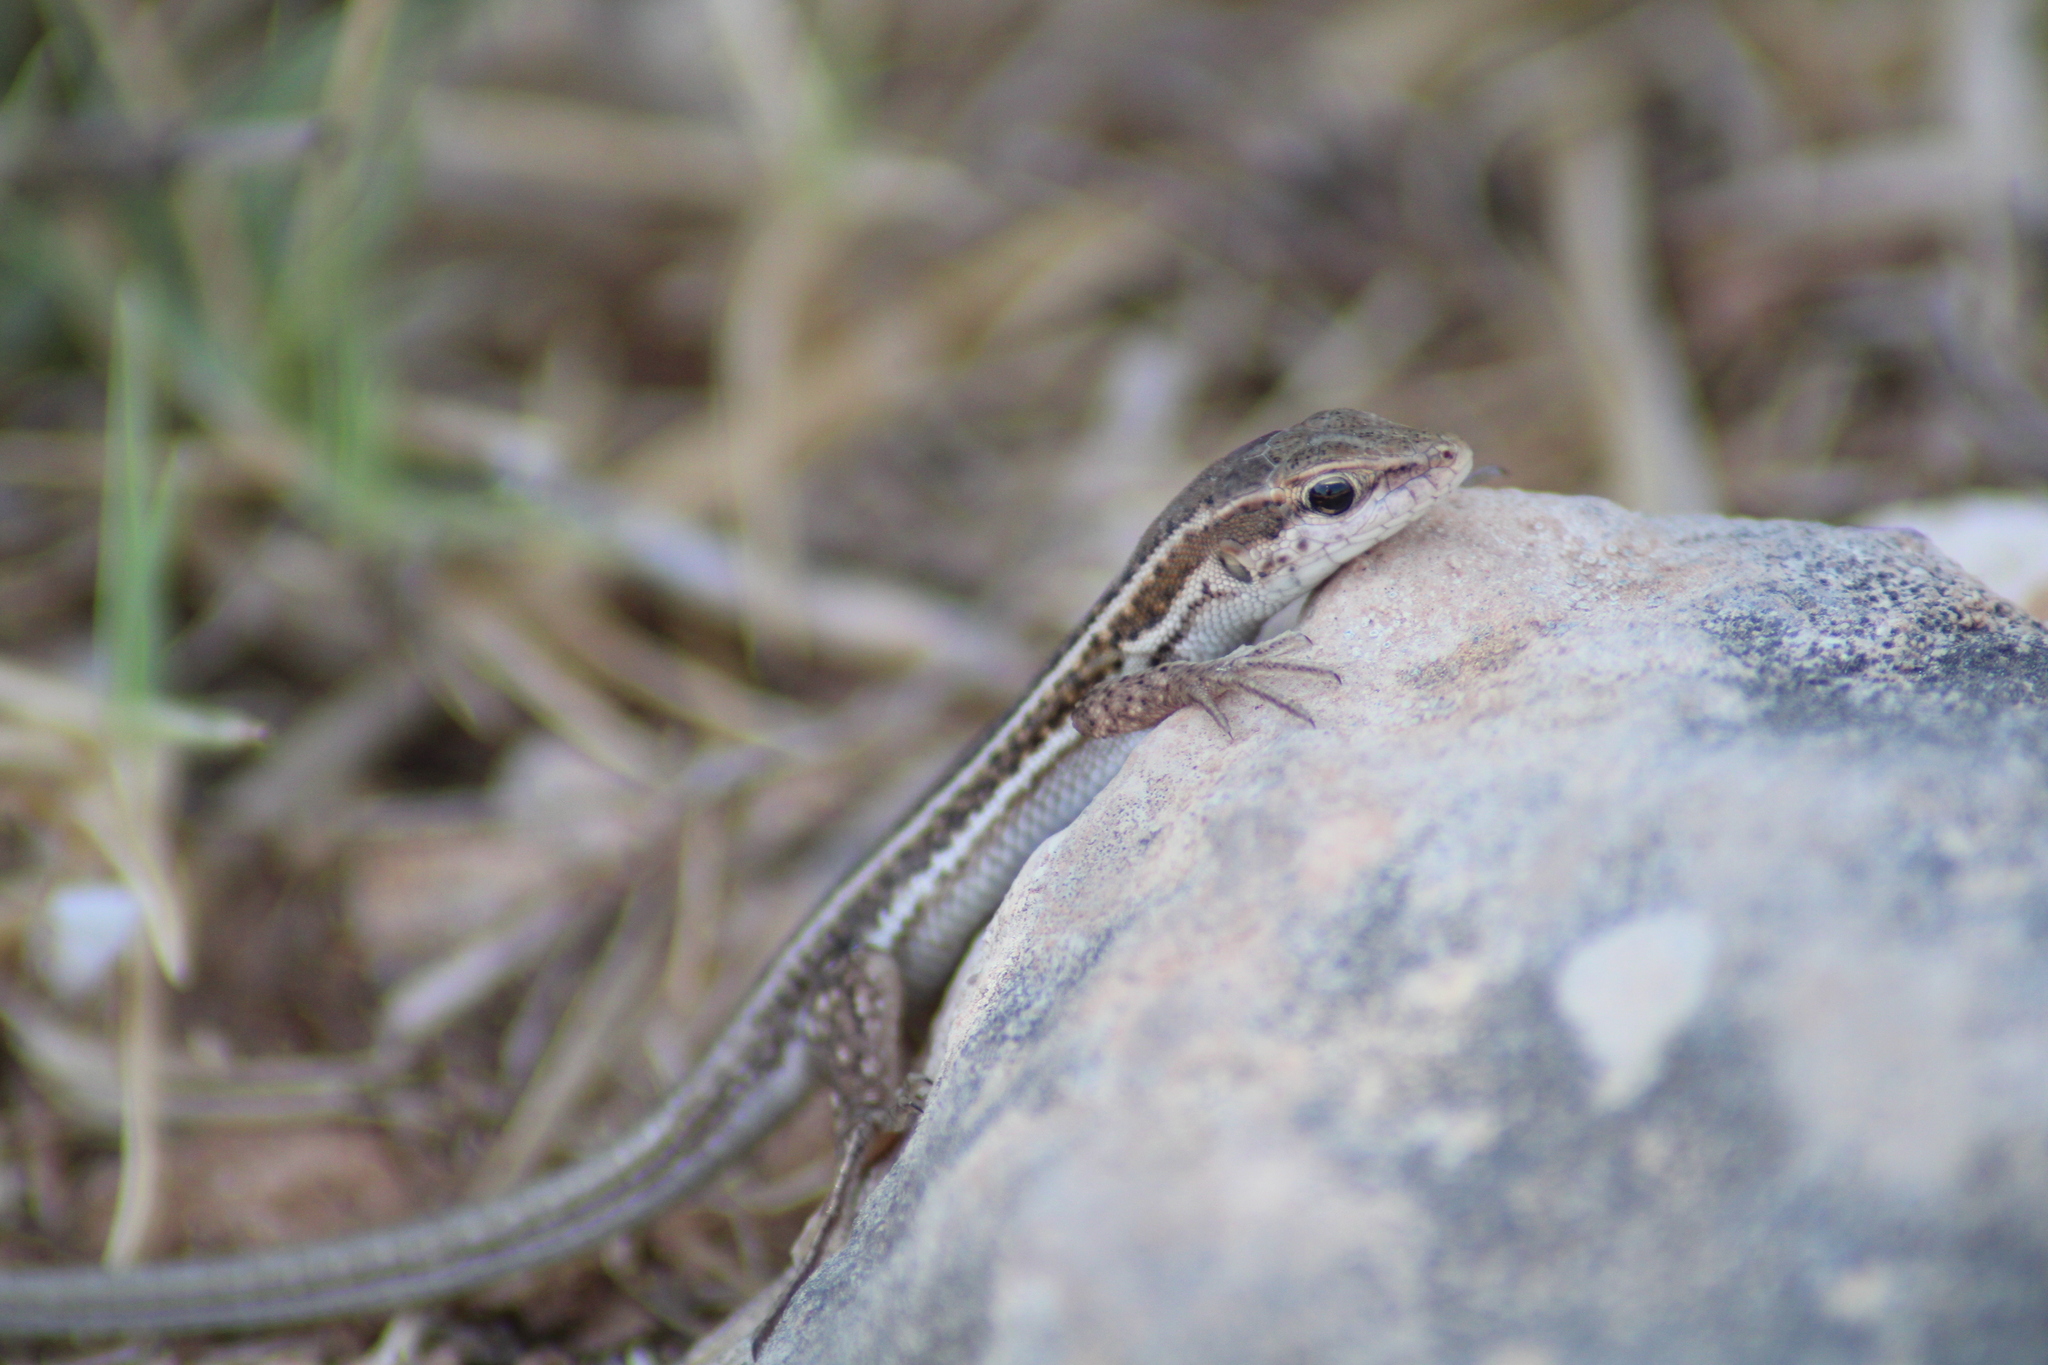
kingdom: Animalia
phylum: Chordata
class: Squamata
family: Lacertidae
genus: Ophisops
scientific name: Ophisops elegans
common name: Snake-eyed lizard
